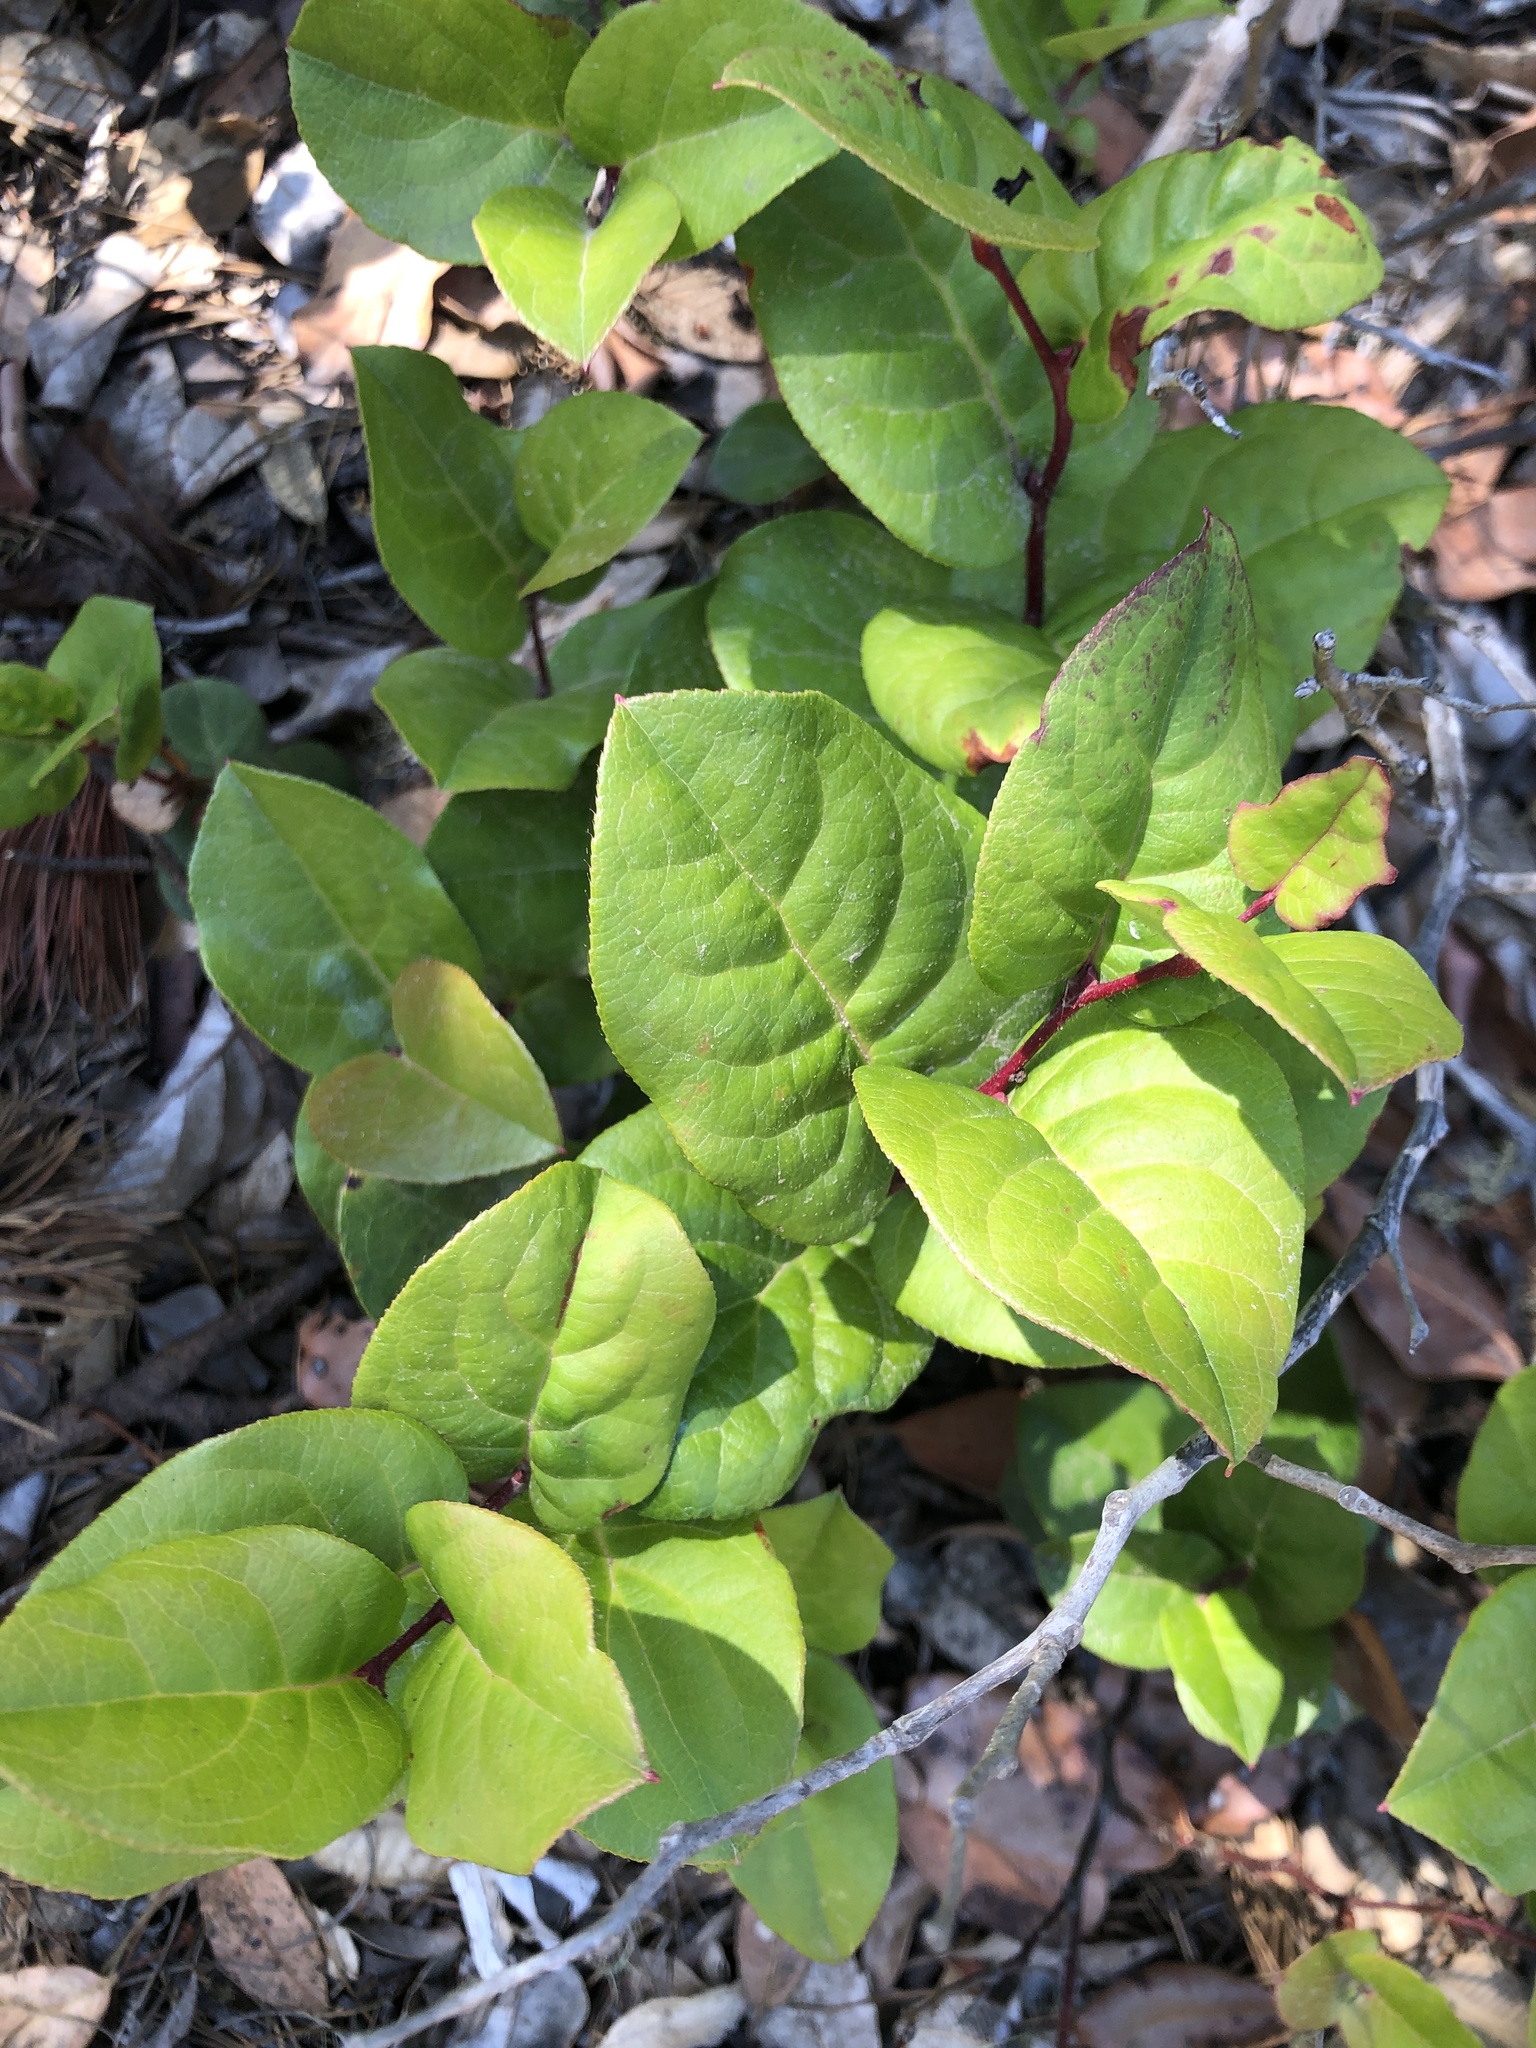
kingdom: Plantae
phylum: Tracheophyta
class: Magnoliopsida
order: Ericales
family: Ericaceae
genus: Gaultheria
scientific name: Gaultheria shallon
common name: Shallon
